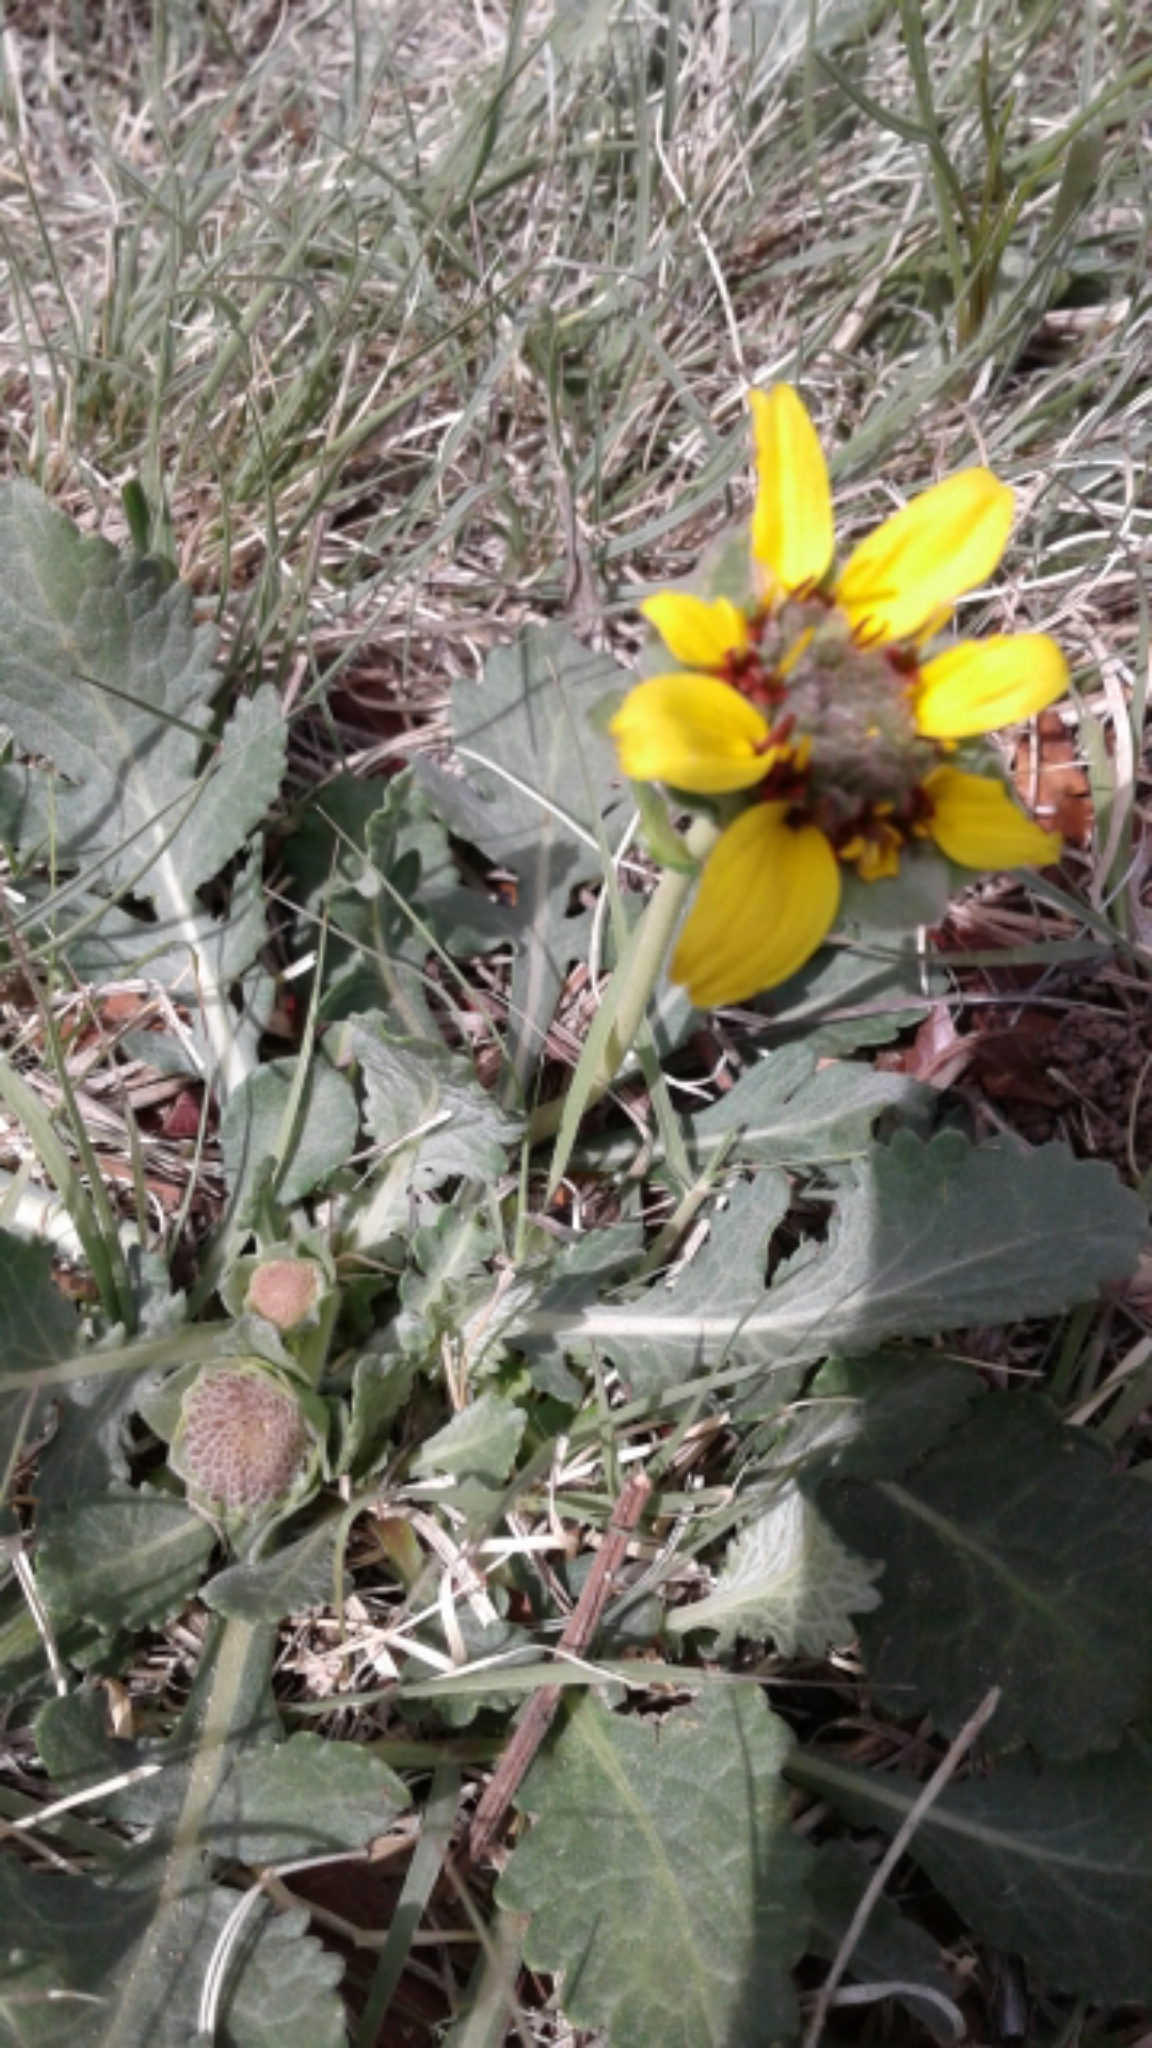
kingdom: Plantae
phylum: Tracheophyta
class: Magnoliopsida
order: Asterales
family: Asteraceae
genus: Berlandiera
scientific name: Berlandiera lyrata
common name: Chocolate-flower
